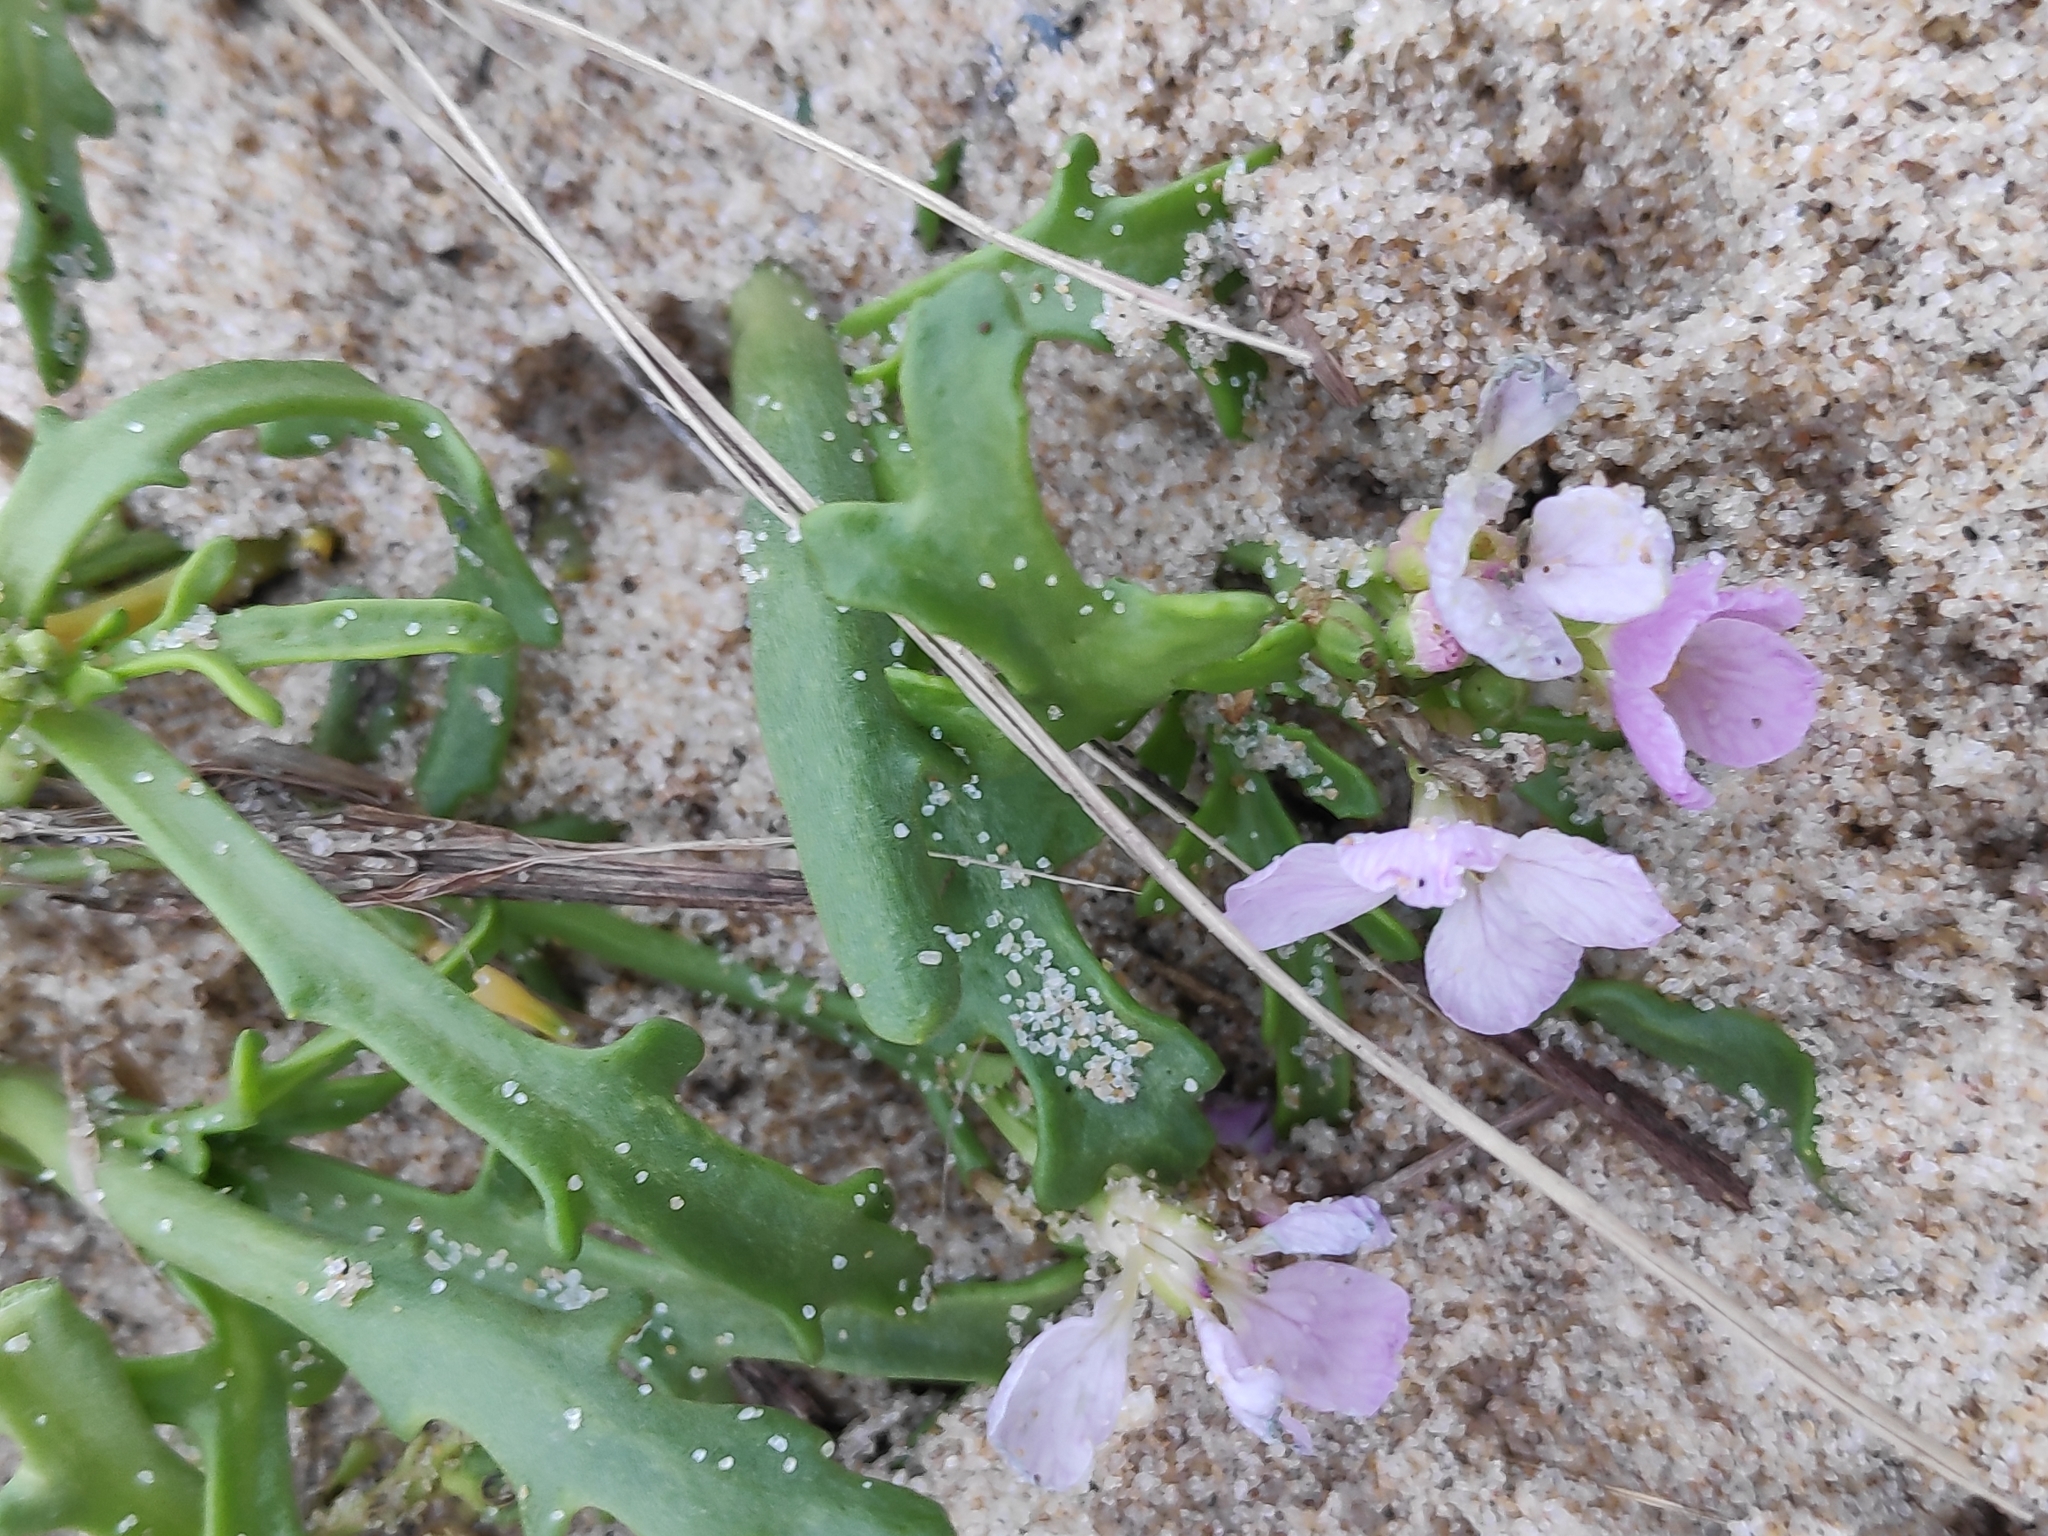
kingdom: Plantae
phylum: Tracheophyta
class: Magnoliopsida
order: Brassicales
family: Brassicaceae
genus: Cakile
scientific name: Cakile maritima
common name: Sea rocket
